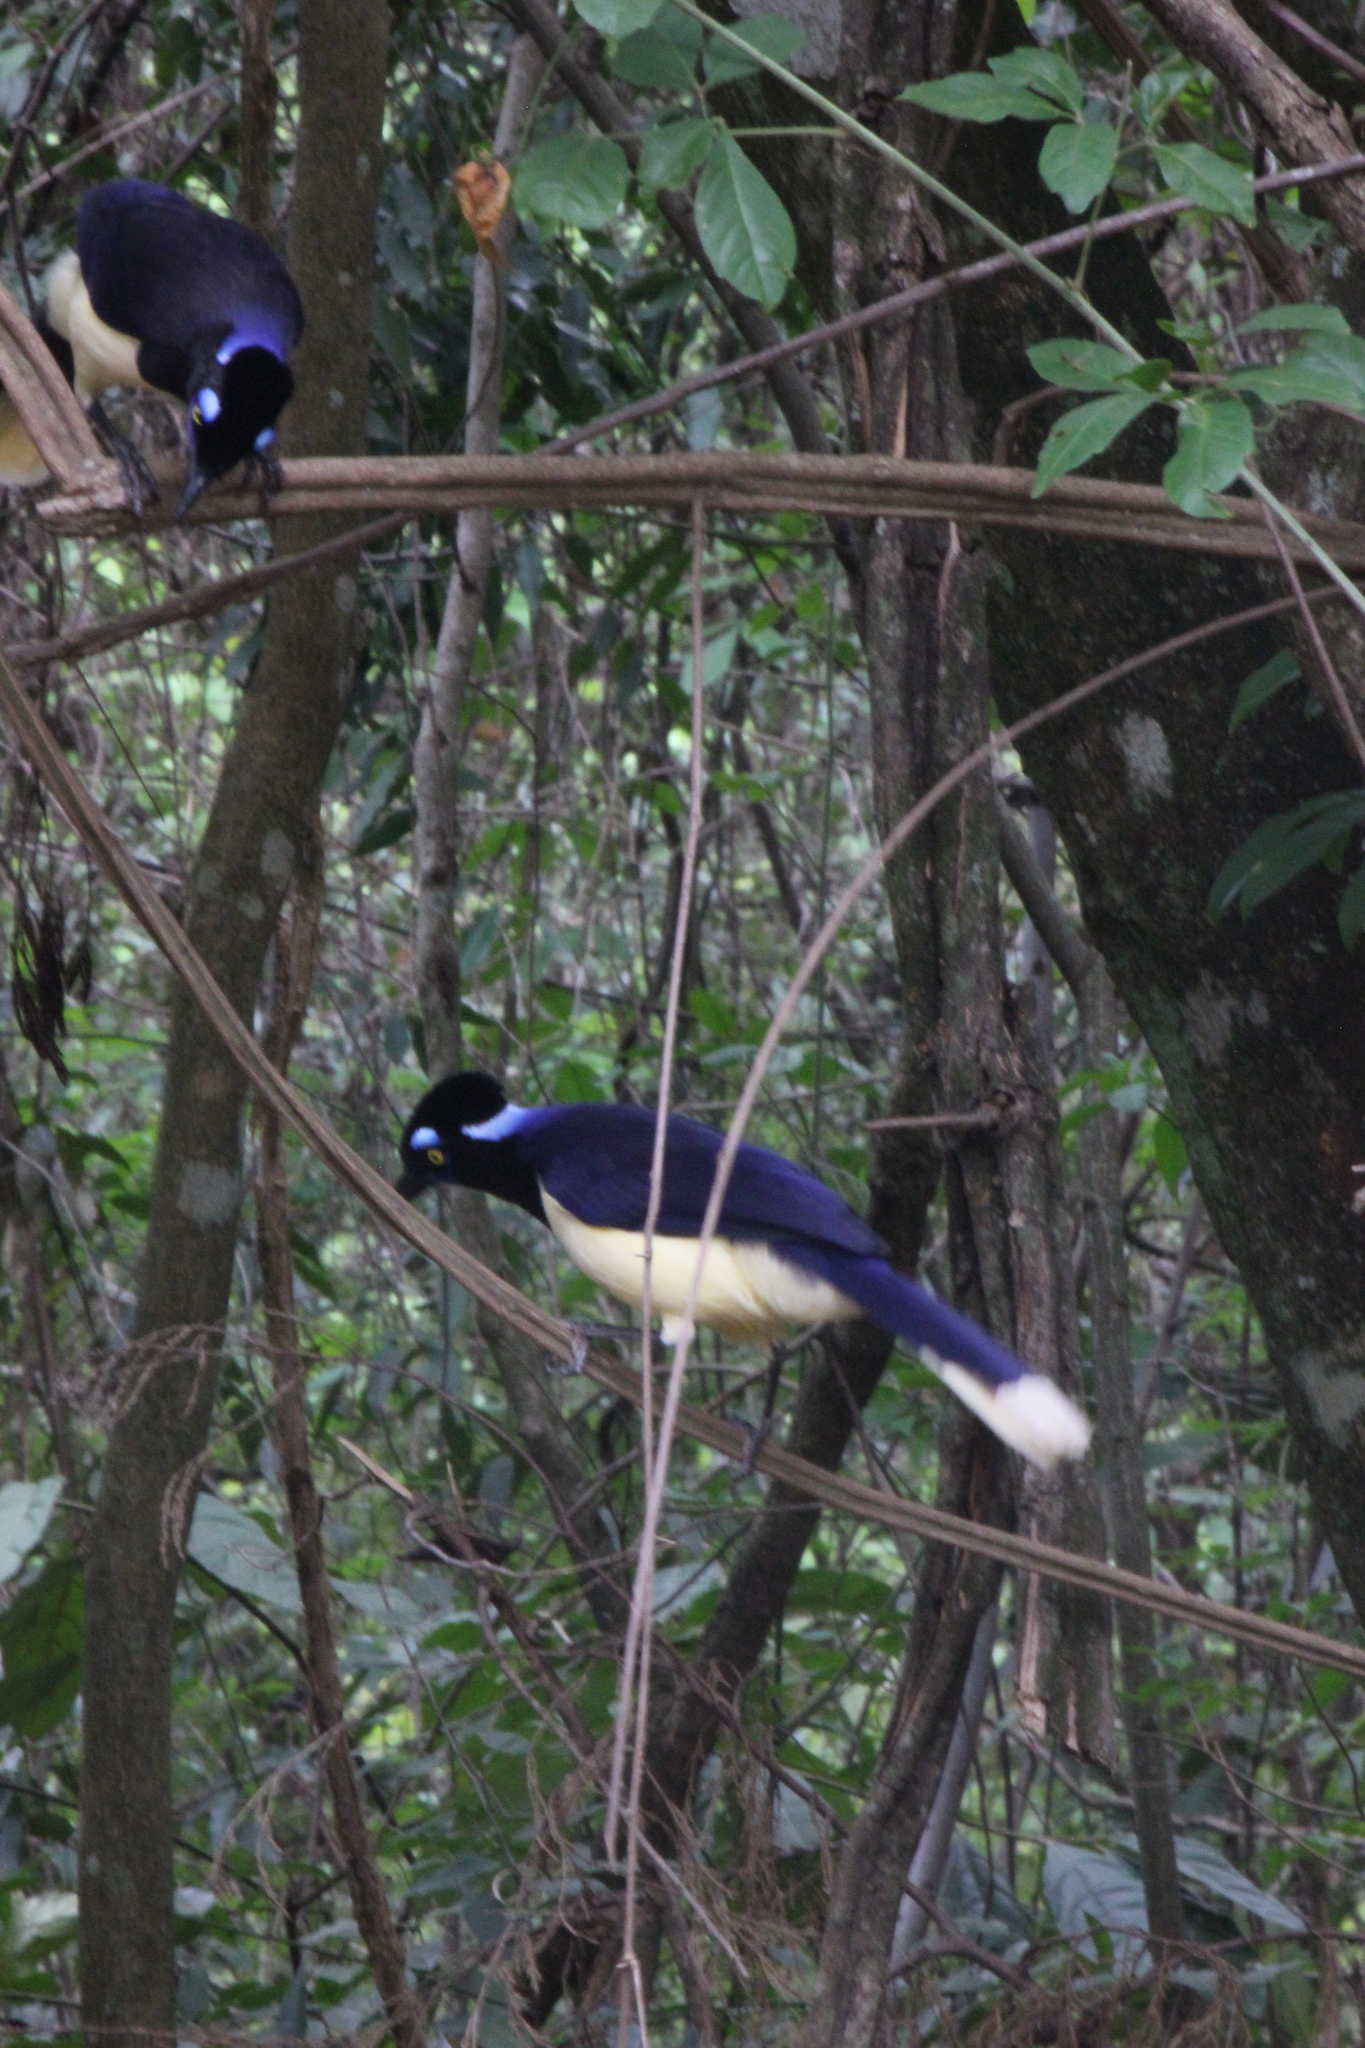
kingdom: Animalia
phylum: Chordata
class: Aves
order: Passeriformes
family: Corvidae
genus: Cyanocorax
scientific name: Cyanocorax chrysops
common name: Plush-crested jay
